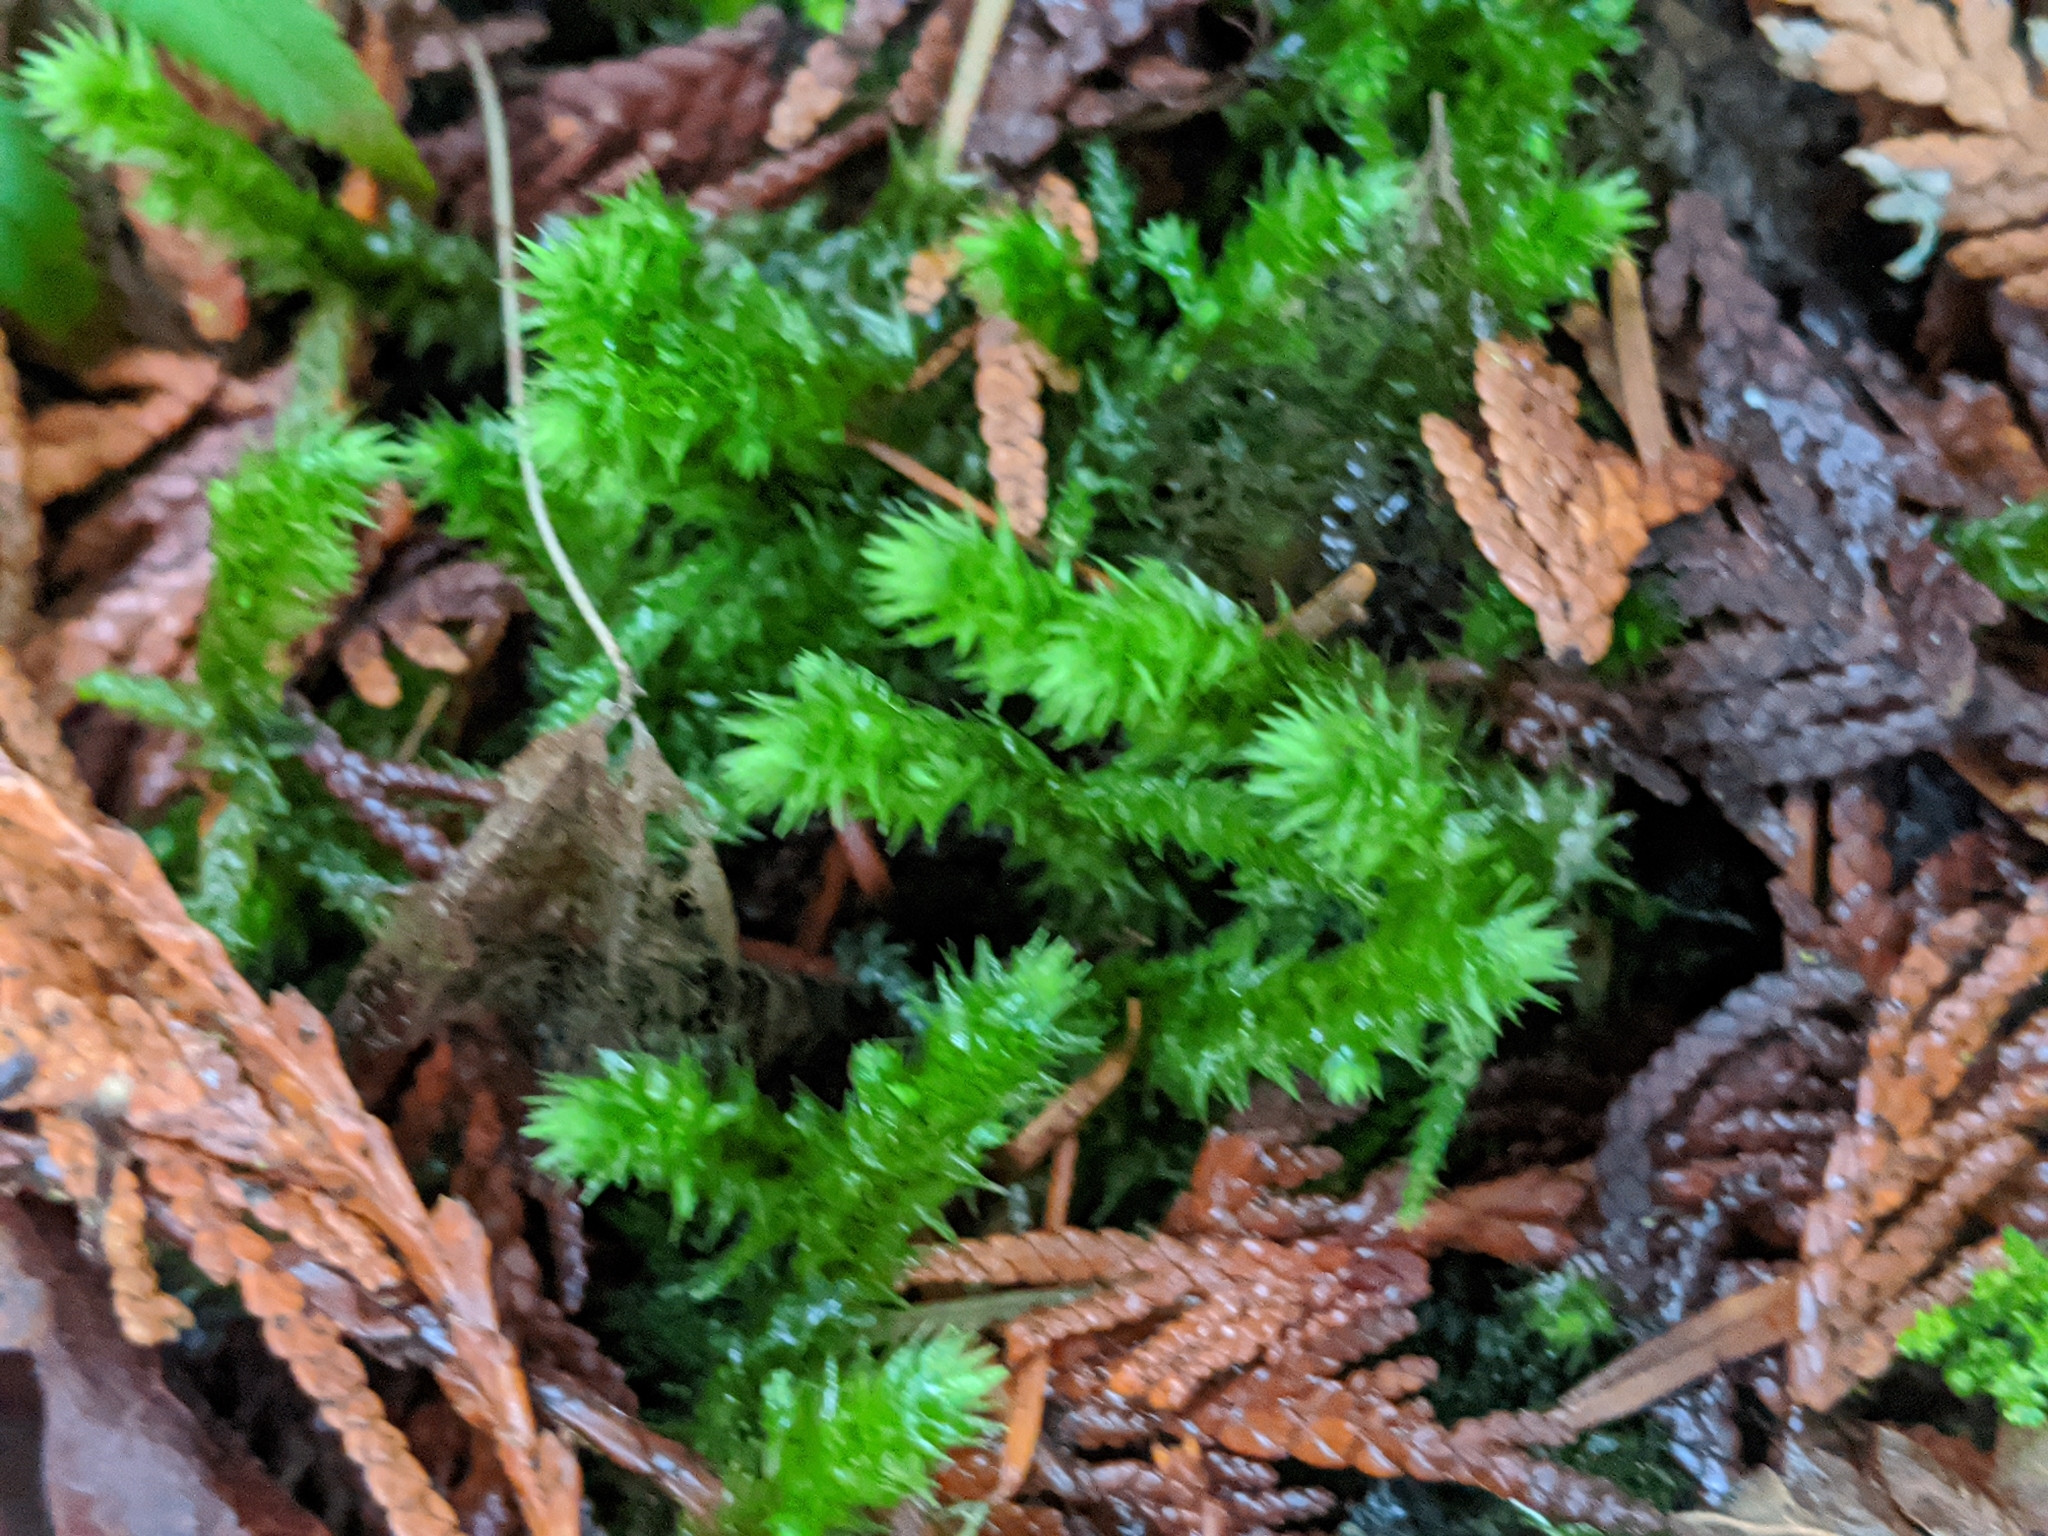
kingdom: Plantae
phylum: Bryophyta
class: Bryopsida
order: Hypnales
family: Hylocomiaceae
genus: Hylocomiadelphus
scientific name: Hylocomiadelphus triquetrus
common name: Rough goose neck moss
